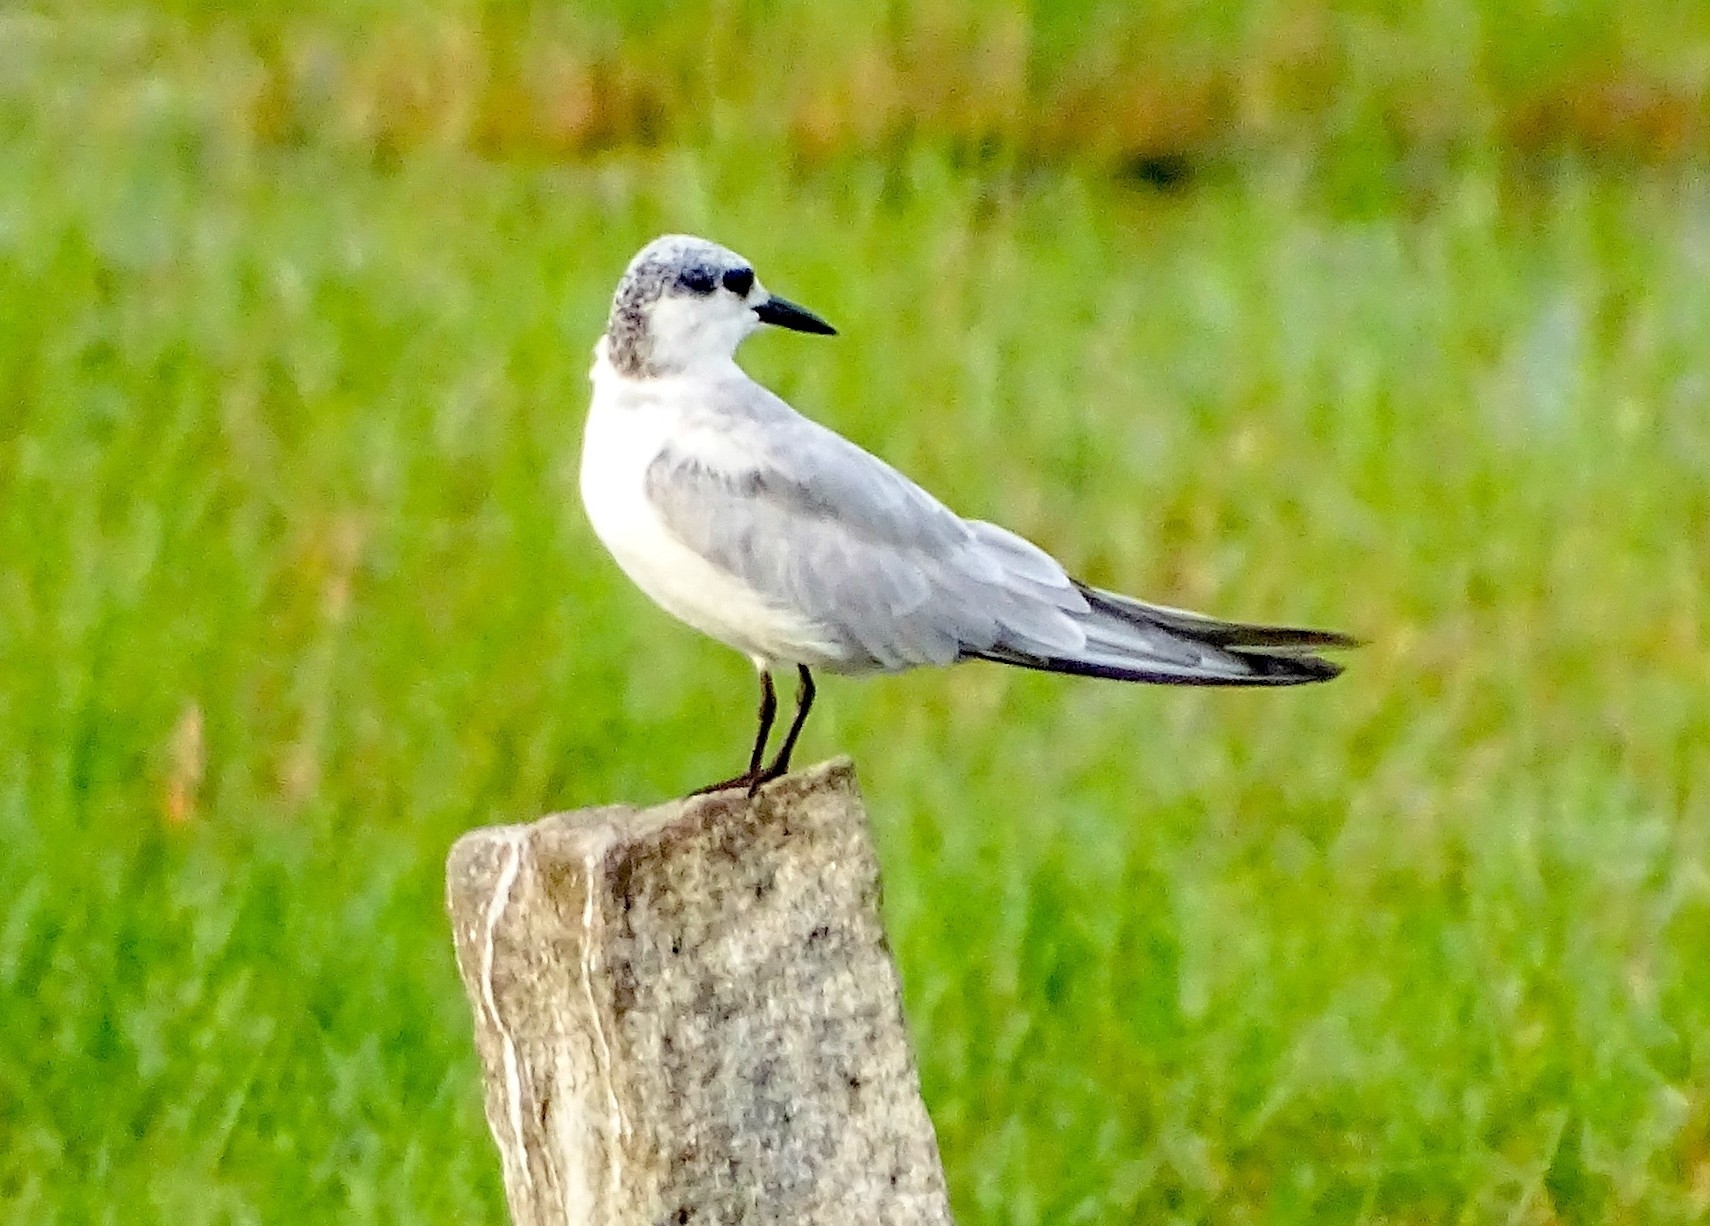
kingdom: Animalia
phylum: Chordata
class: Aves
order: Charadriiformes
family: Laridae
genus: Chlidonias
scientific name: Chlidonias hybrida
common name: Whiskered tern
